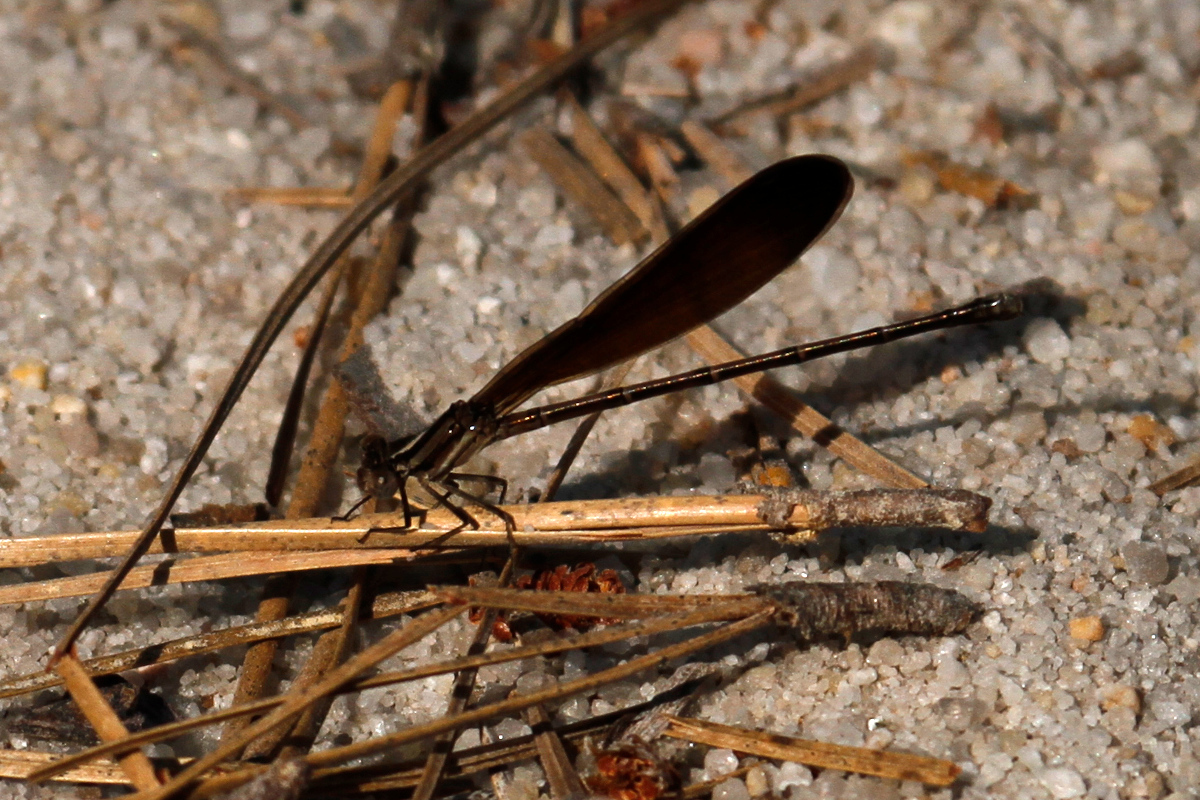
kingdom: Animalia
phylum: Arthropoda
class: Insecta
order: Odonata
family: Coenagrionidae
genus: Argia
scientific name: Argia fumipennis
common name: Variable dancer
